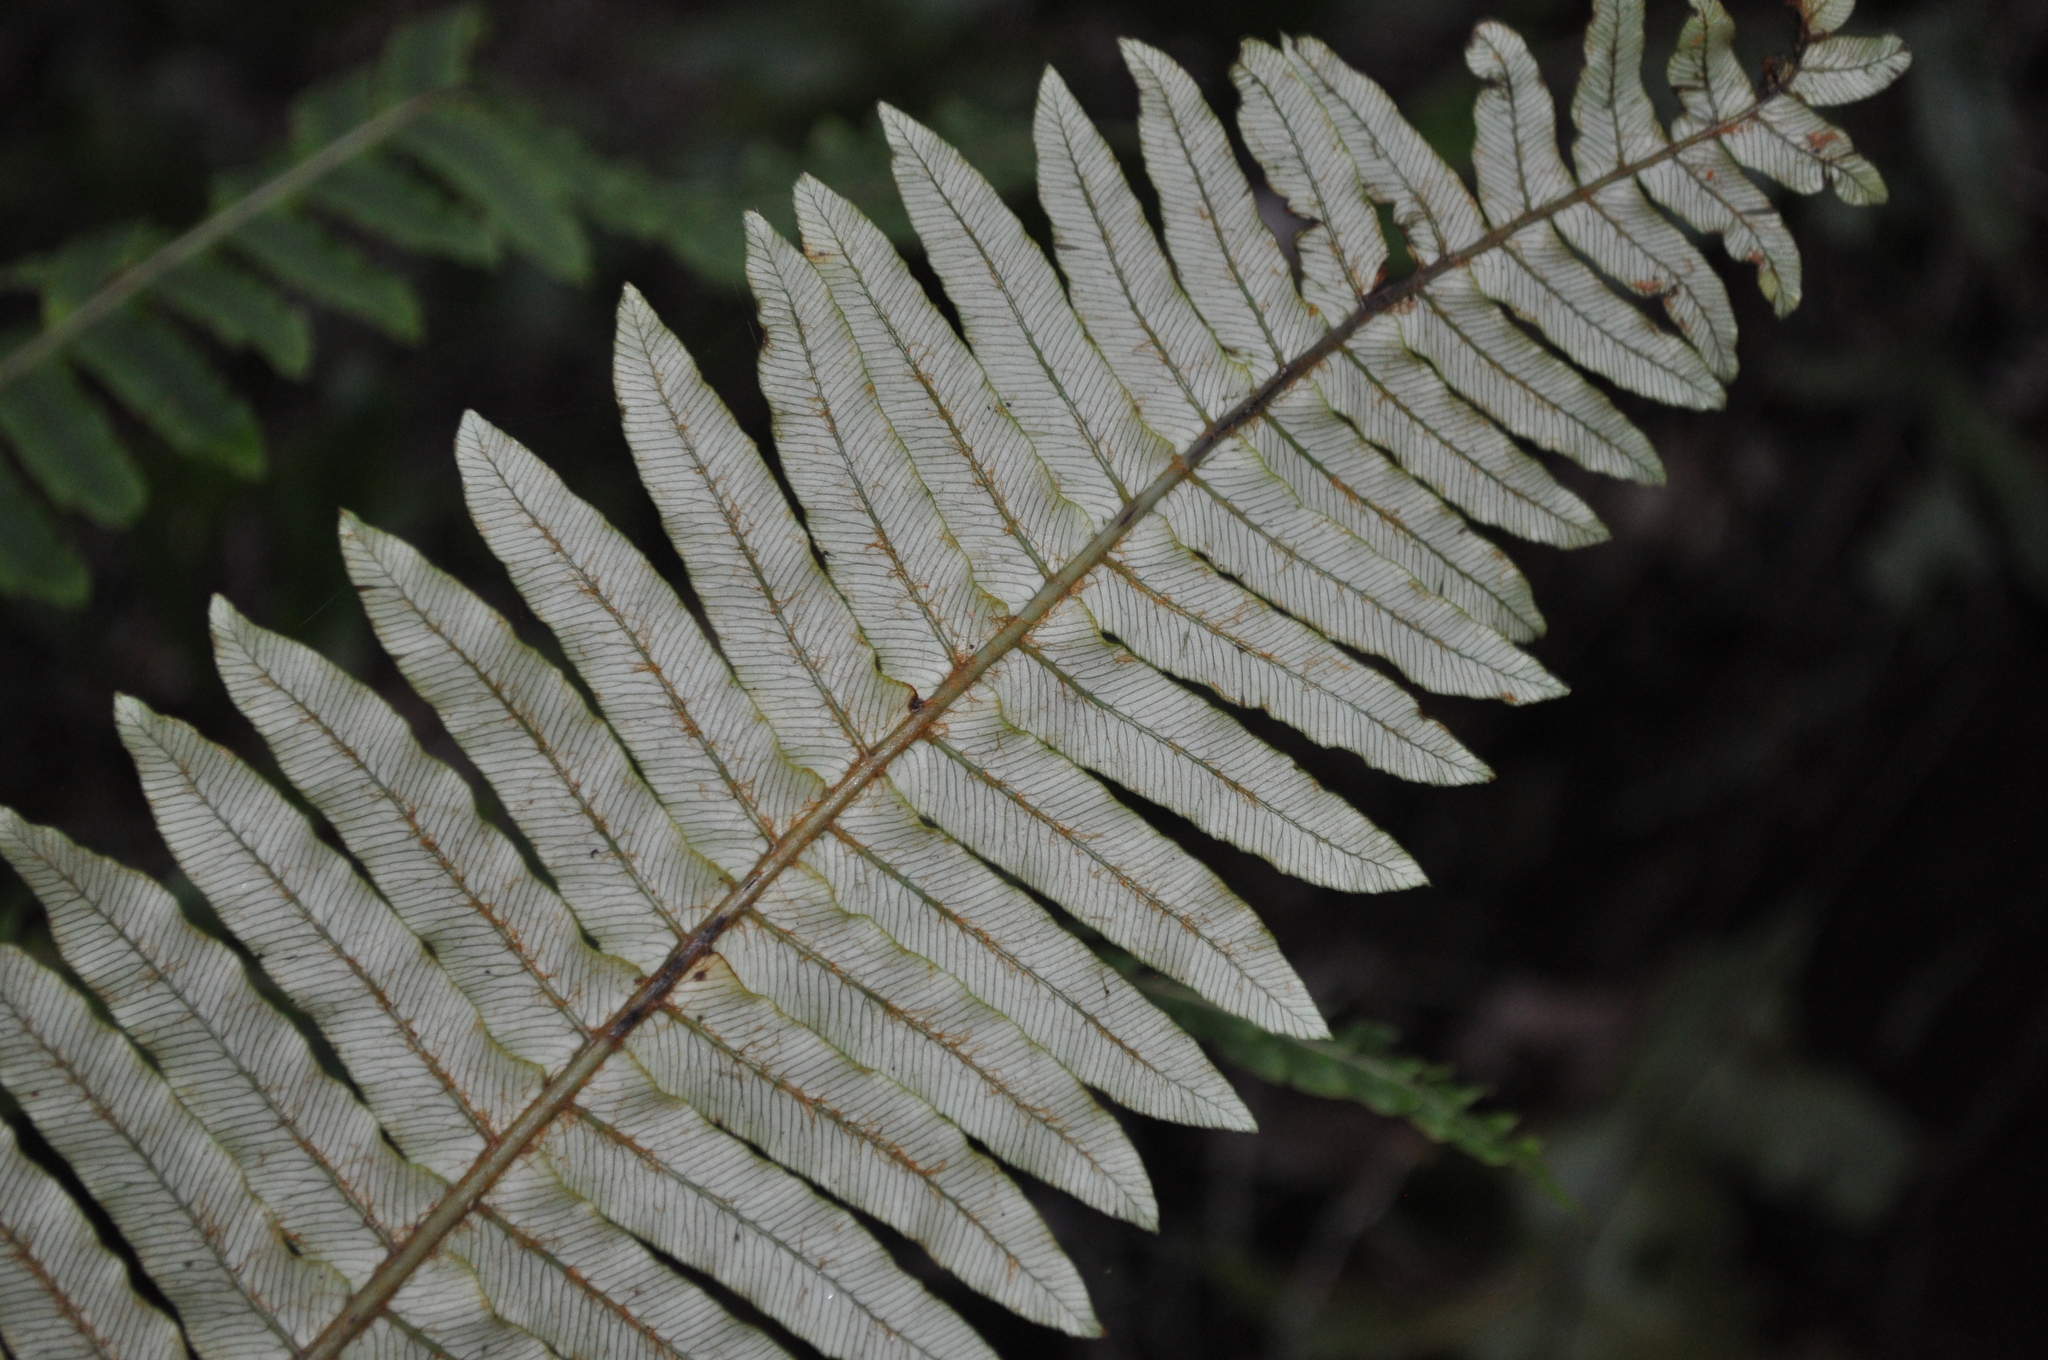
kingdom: Plantae
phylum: Tracheophyta
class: Polypodiopsida
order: Polypodiales
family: Blechnaceae
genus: Lomaria
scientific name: Lomaria discolor
